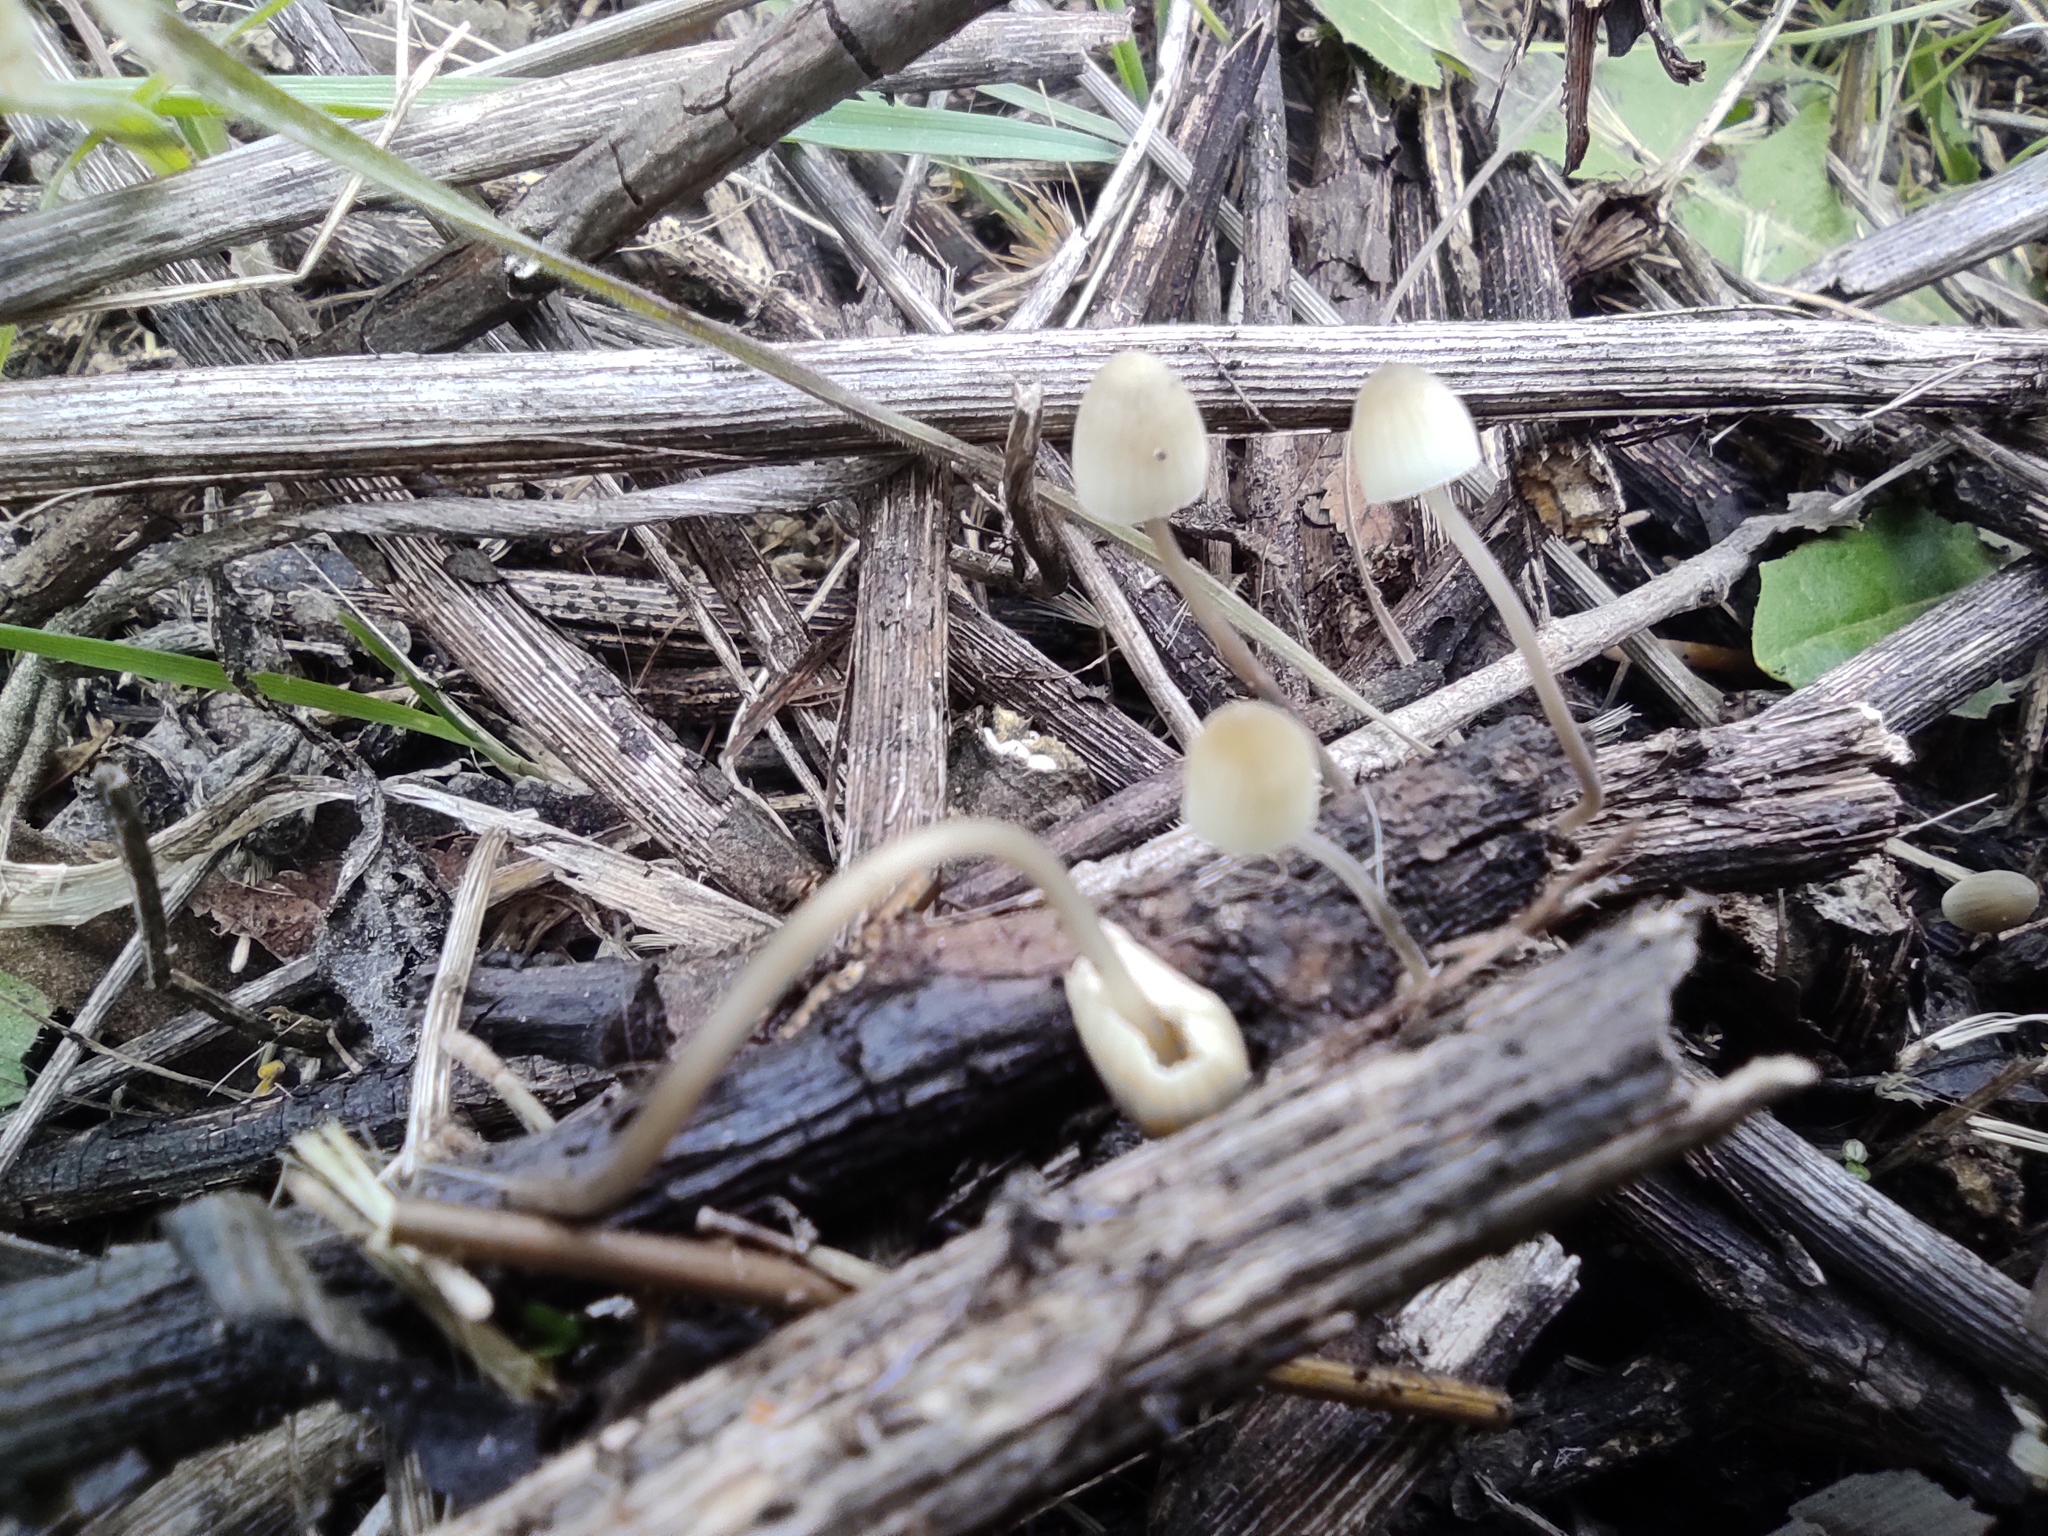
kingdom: Fungi
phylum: Basidiomycota
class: Agaricomycetes
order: Agaricales
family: Mycenaceae
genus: Mycena
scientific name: Mycena arcangeliana
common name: Angel's bonnet
